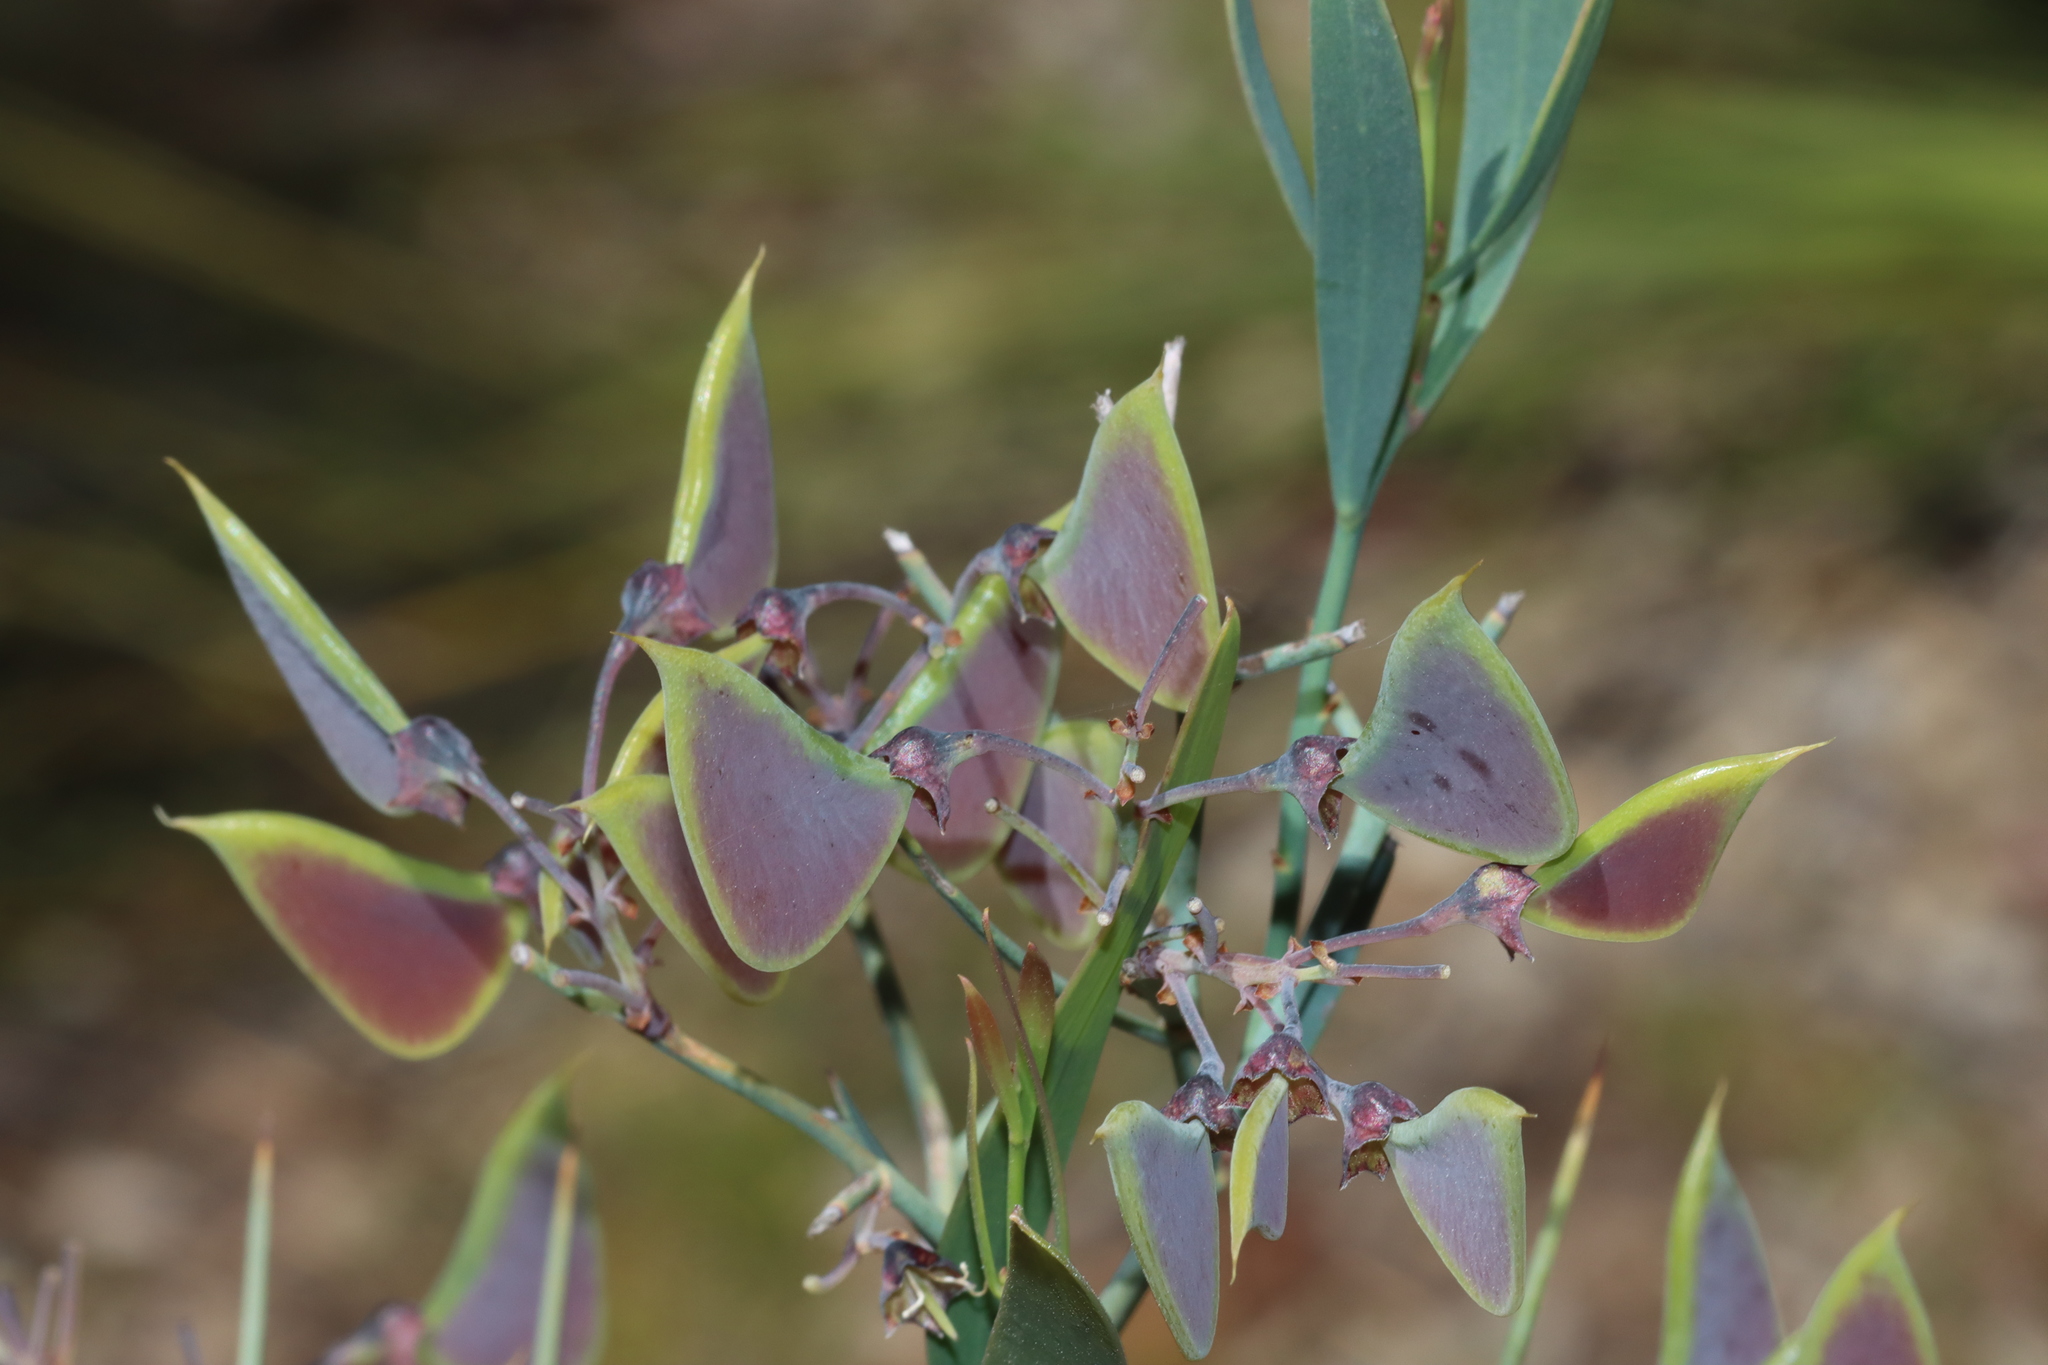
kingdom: Plantae
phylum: Tracheophyta
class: Magnoliopsida
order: Fabales
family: Fabaceae
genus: Daviesia
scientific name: Daviesia horrida
